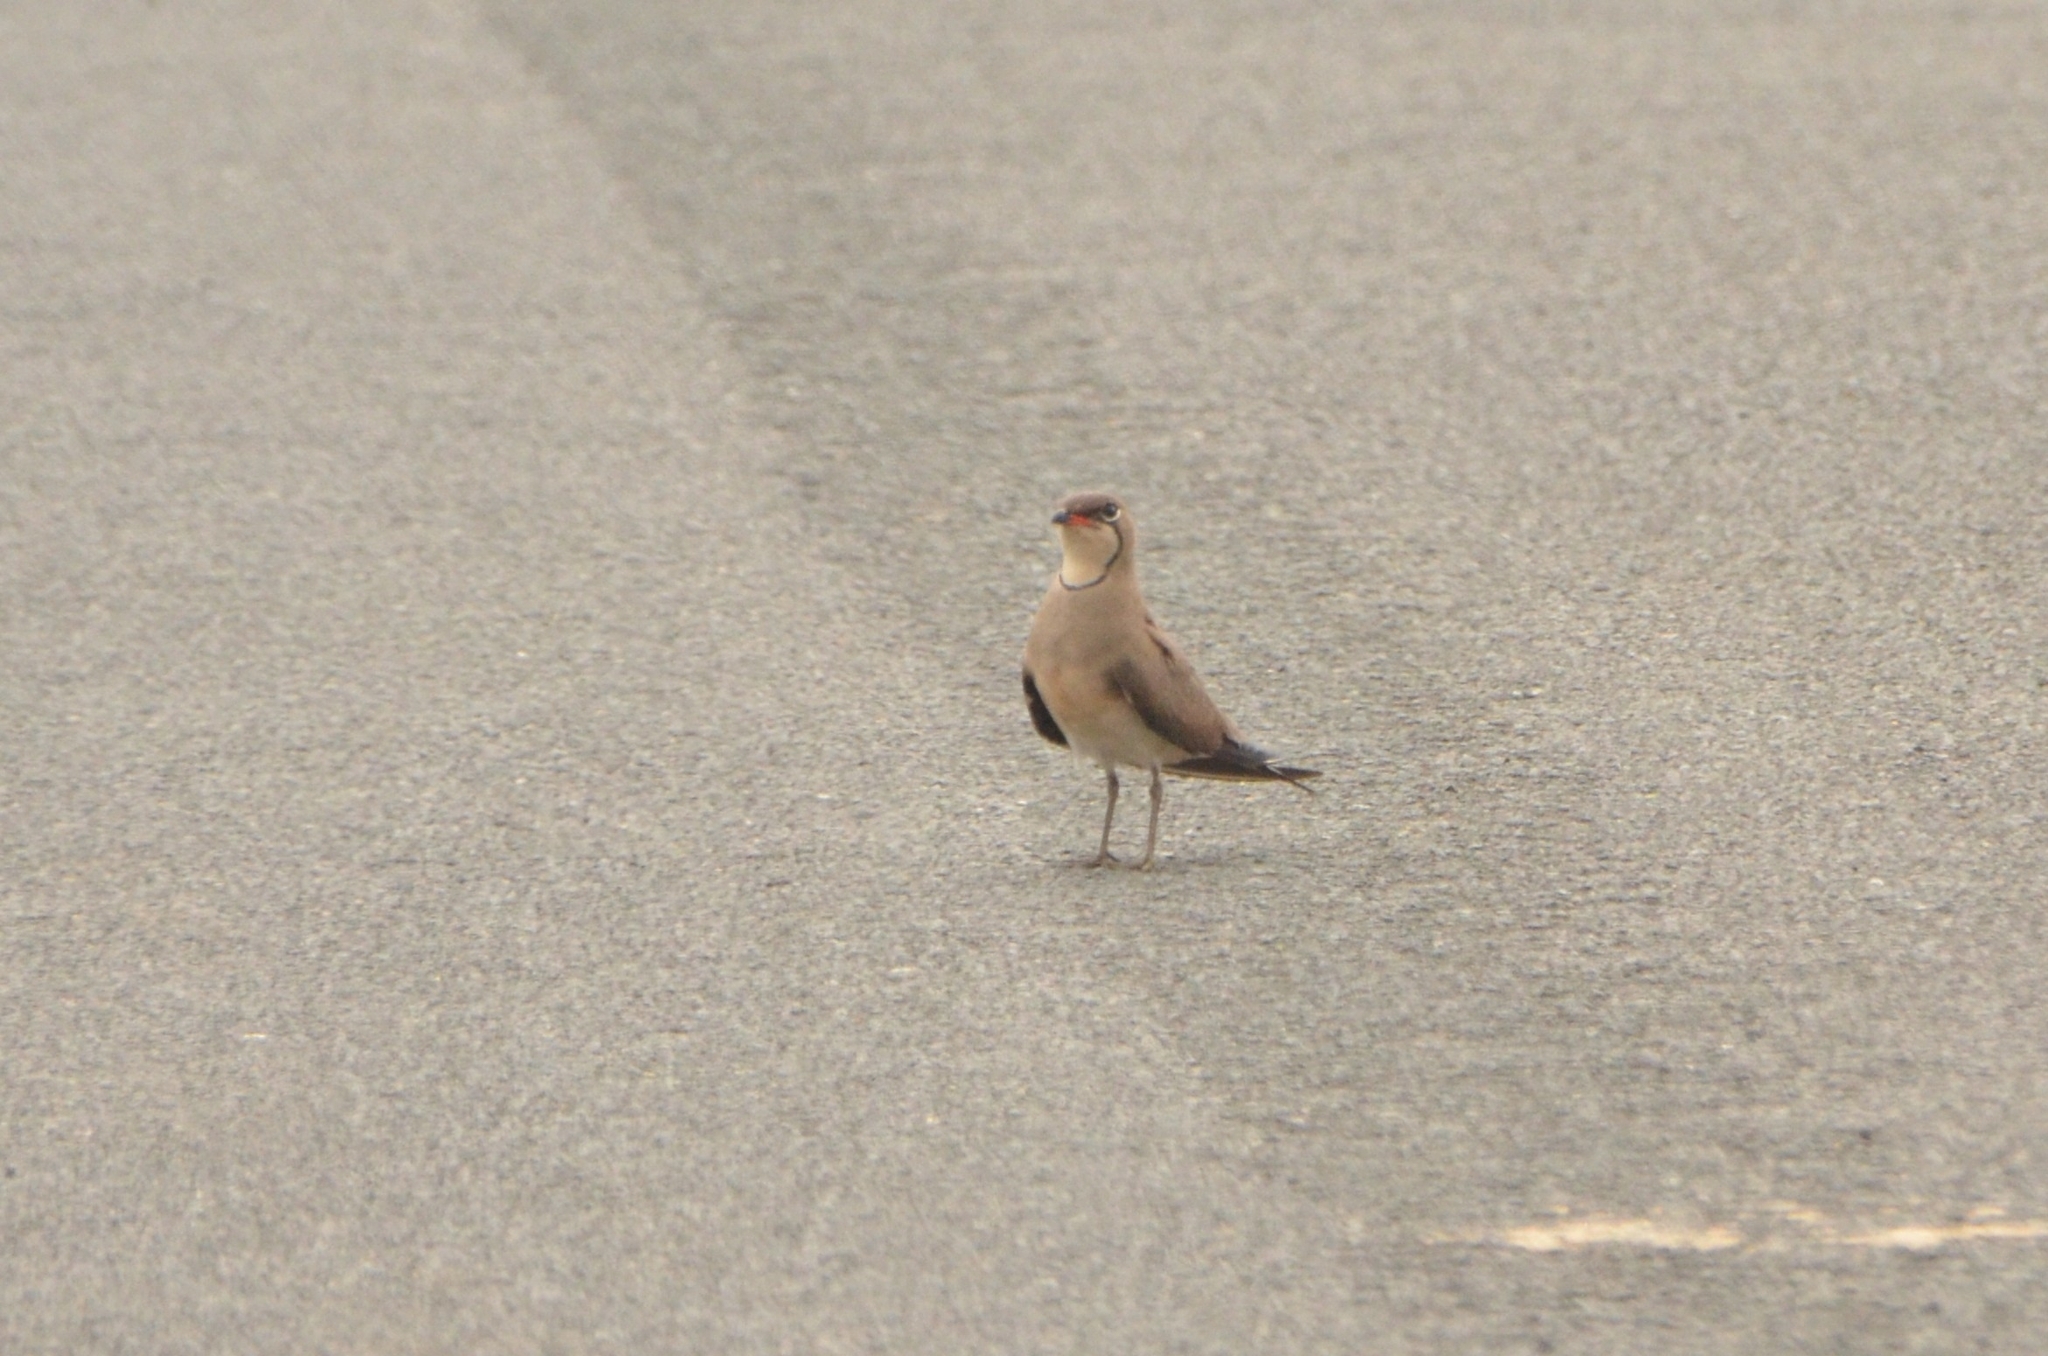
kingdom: Animalia
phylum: Chordata
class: Aves
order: Charadriiformes
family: Glareolidae
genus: Glareola
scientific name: Glareola pratincola
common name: Collared pratincole
